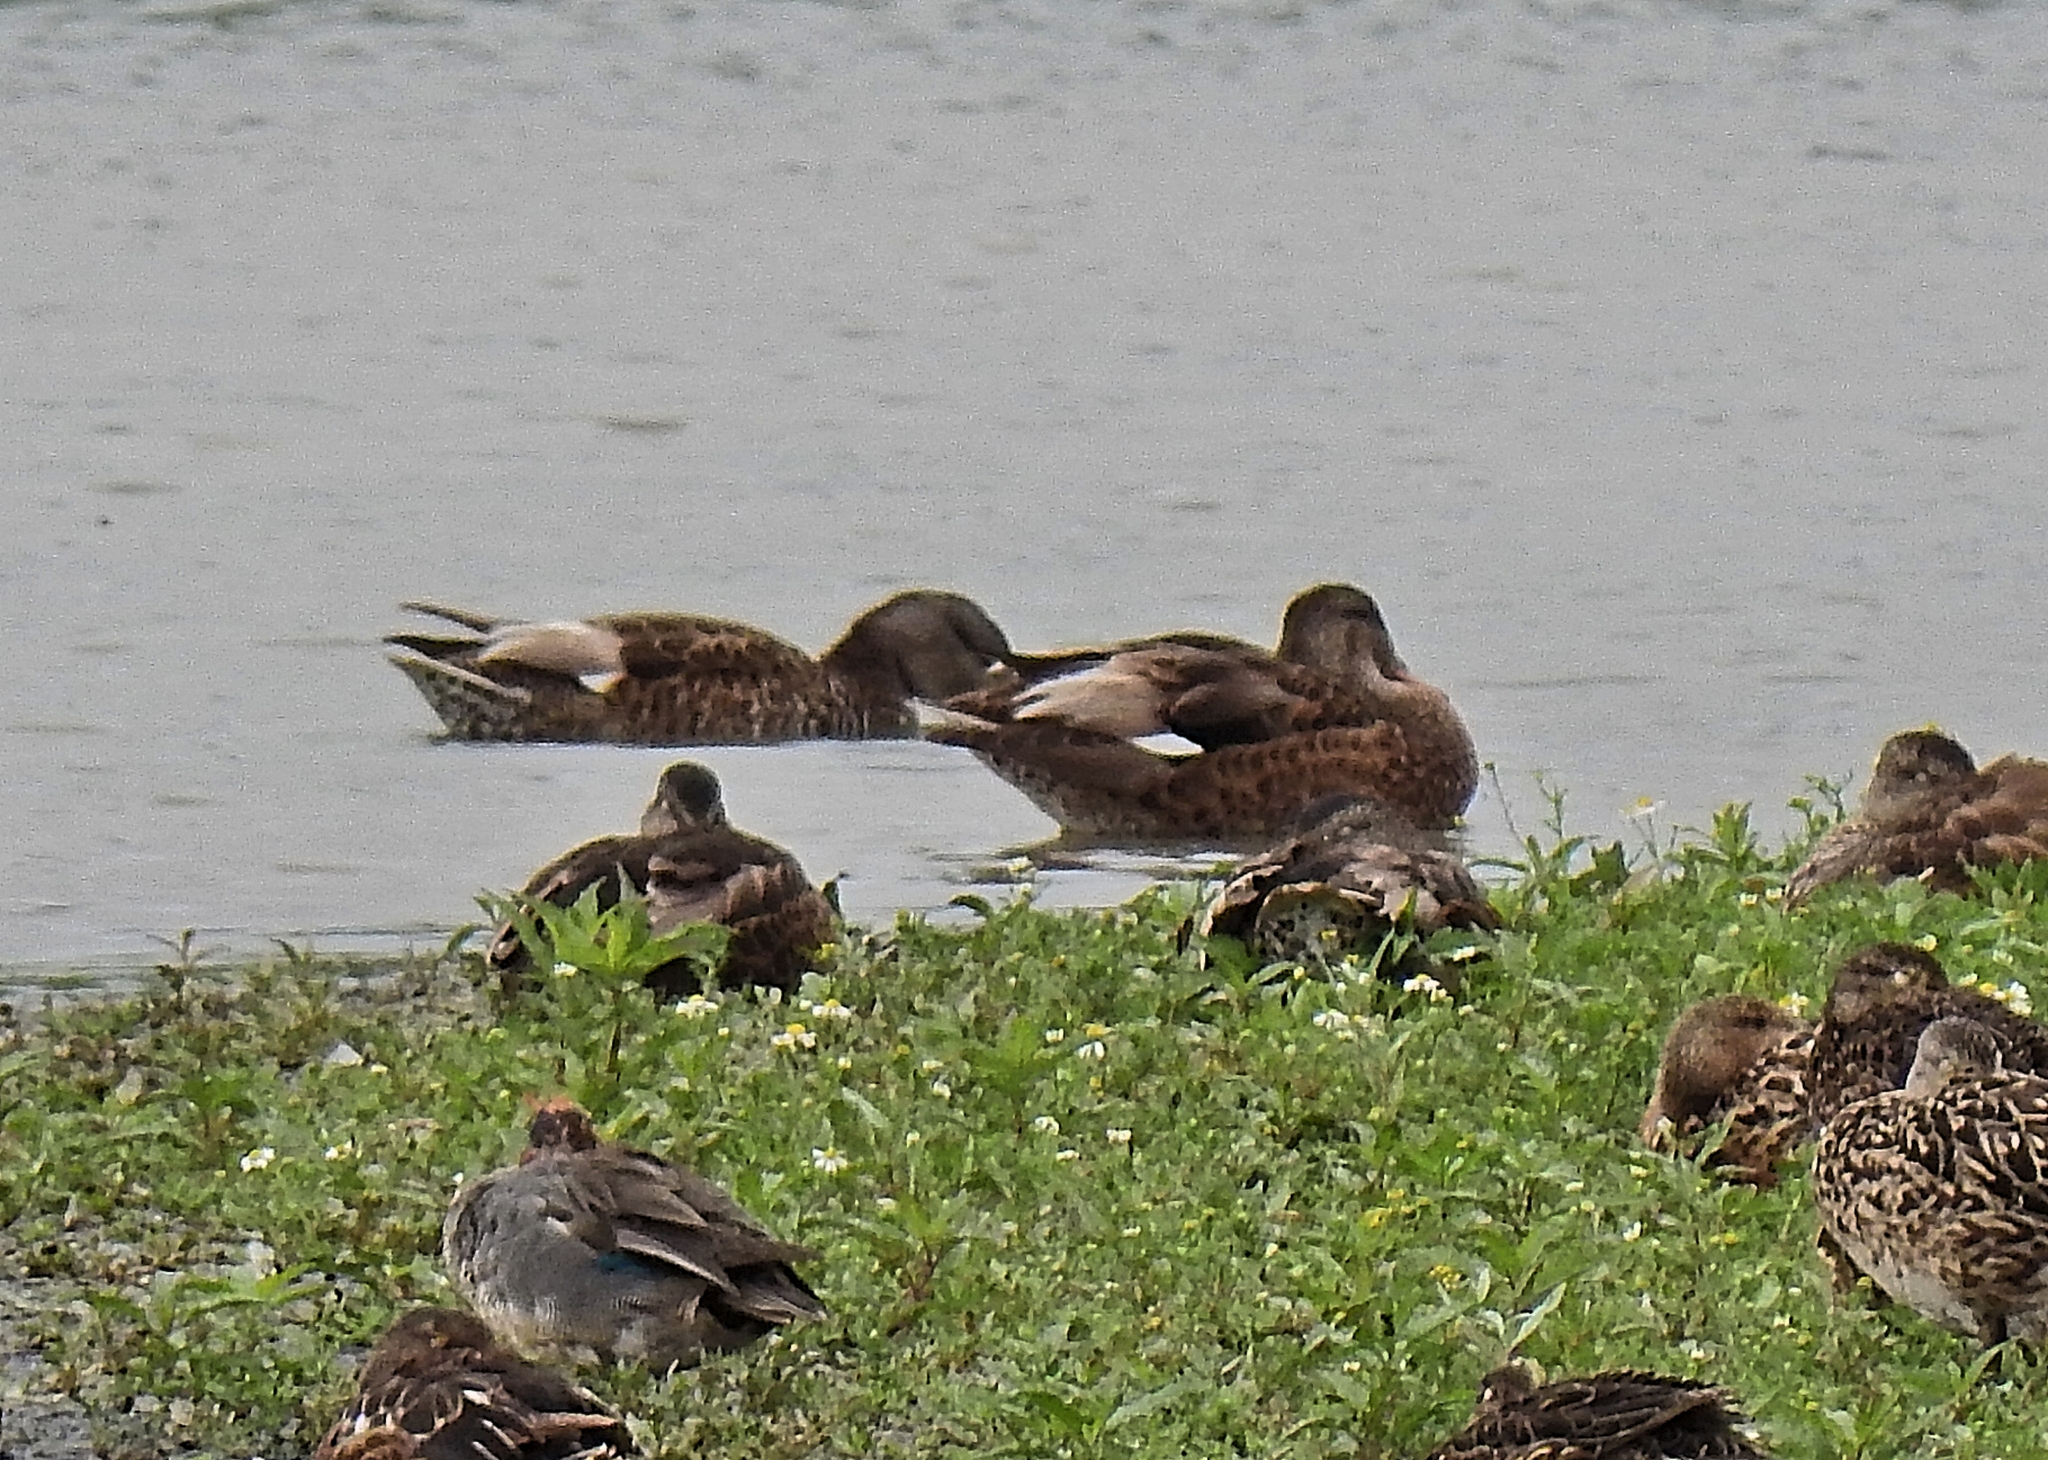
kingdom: Animalia
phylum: Chordata
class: Aves
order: Anseriformes
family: Anatidae
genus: Mareca
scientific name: Mareca strepera
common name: Gadwall
